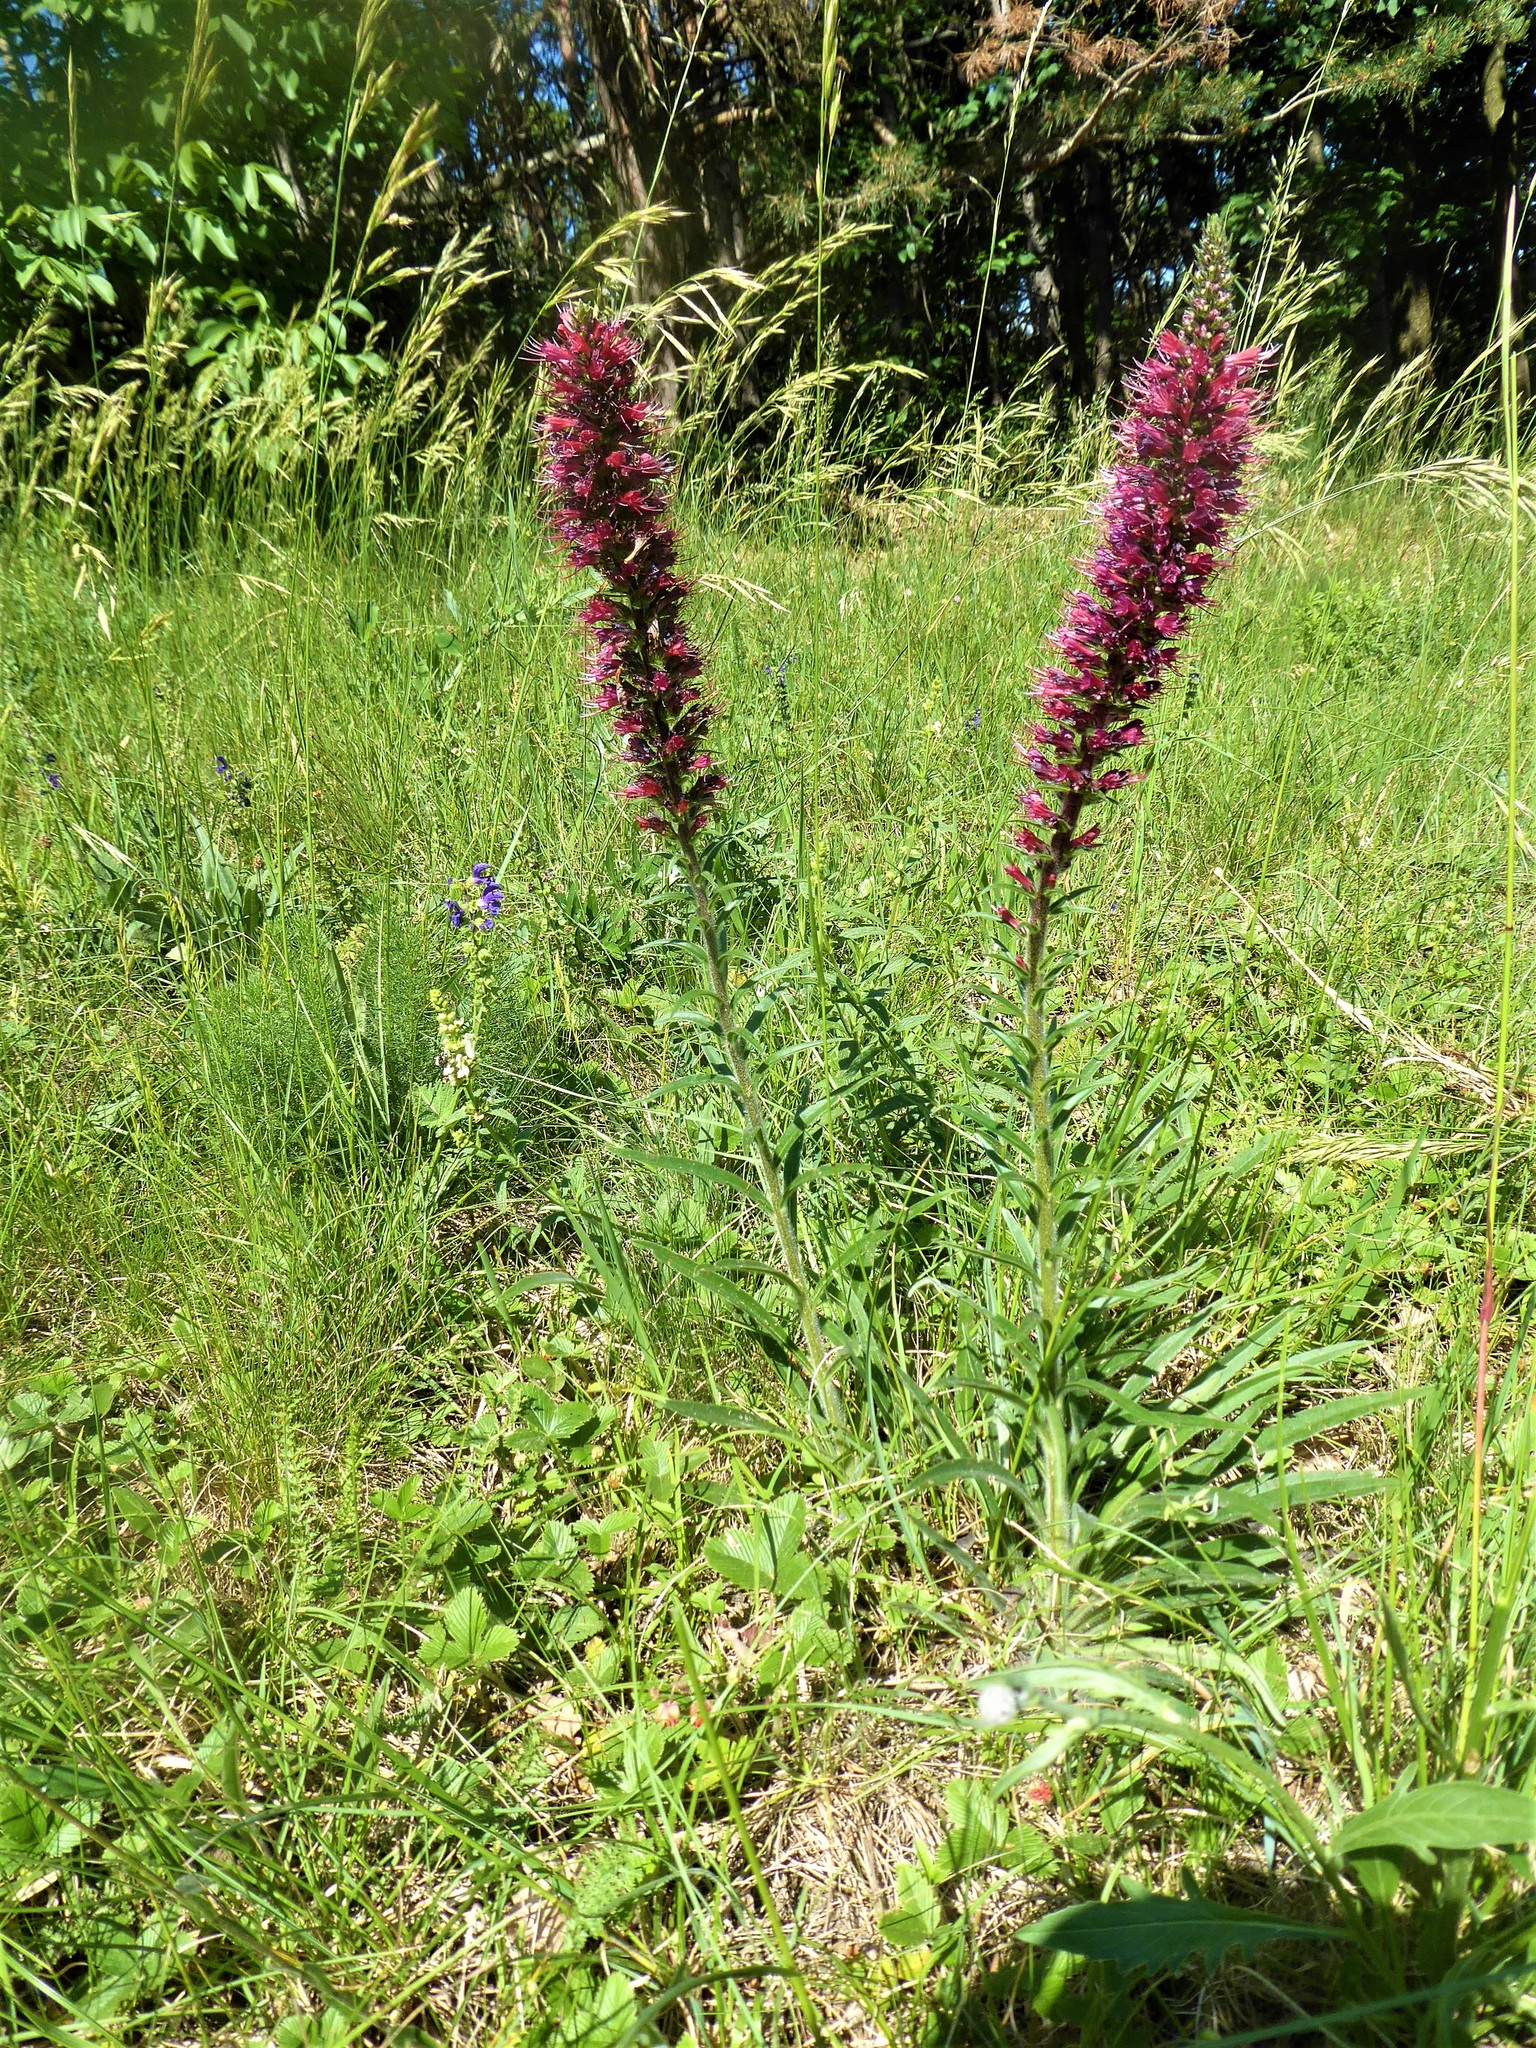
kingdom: Plantae
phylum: Tracheophyta
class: Magnoliopsida
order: Boraginales
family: Boraginaceae
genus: Pontechium
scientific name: Pontechium maculatum
